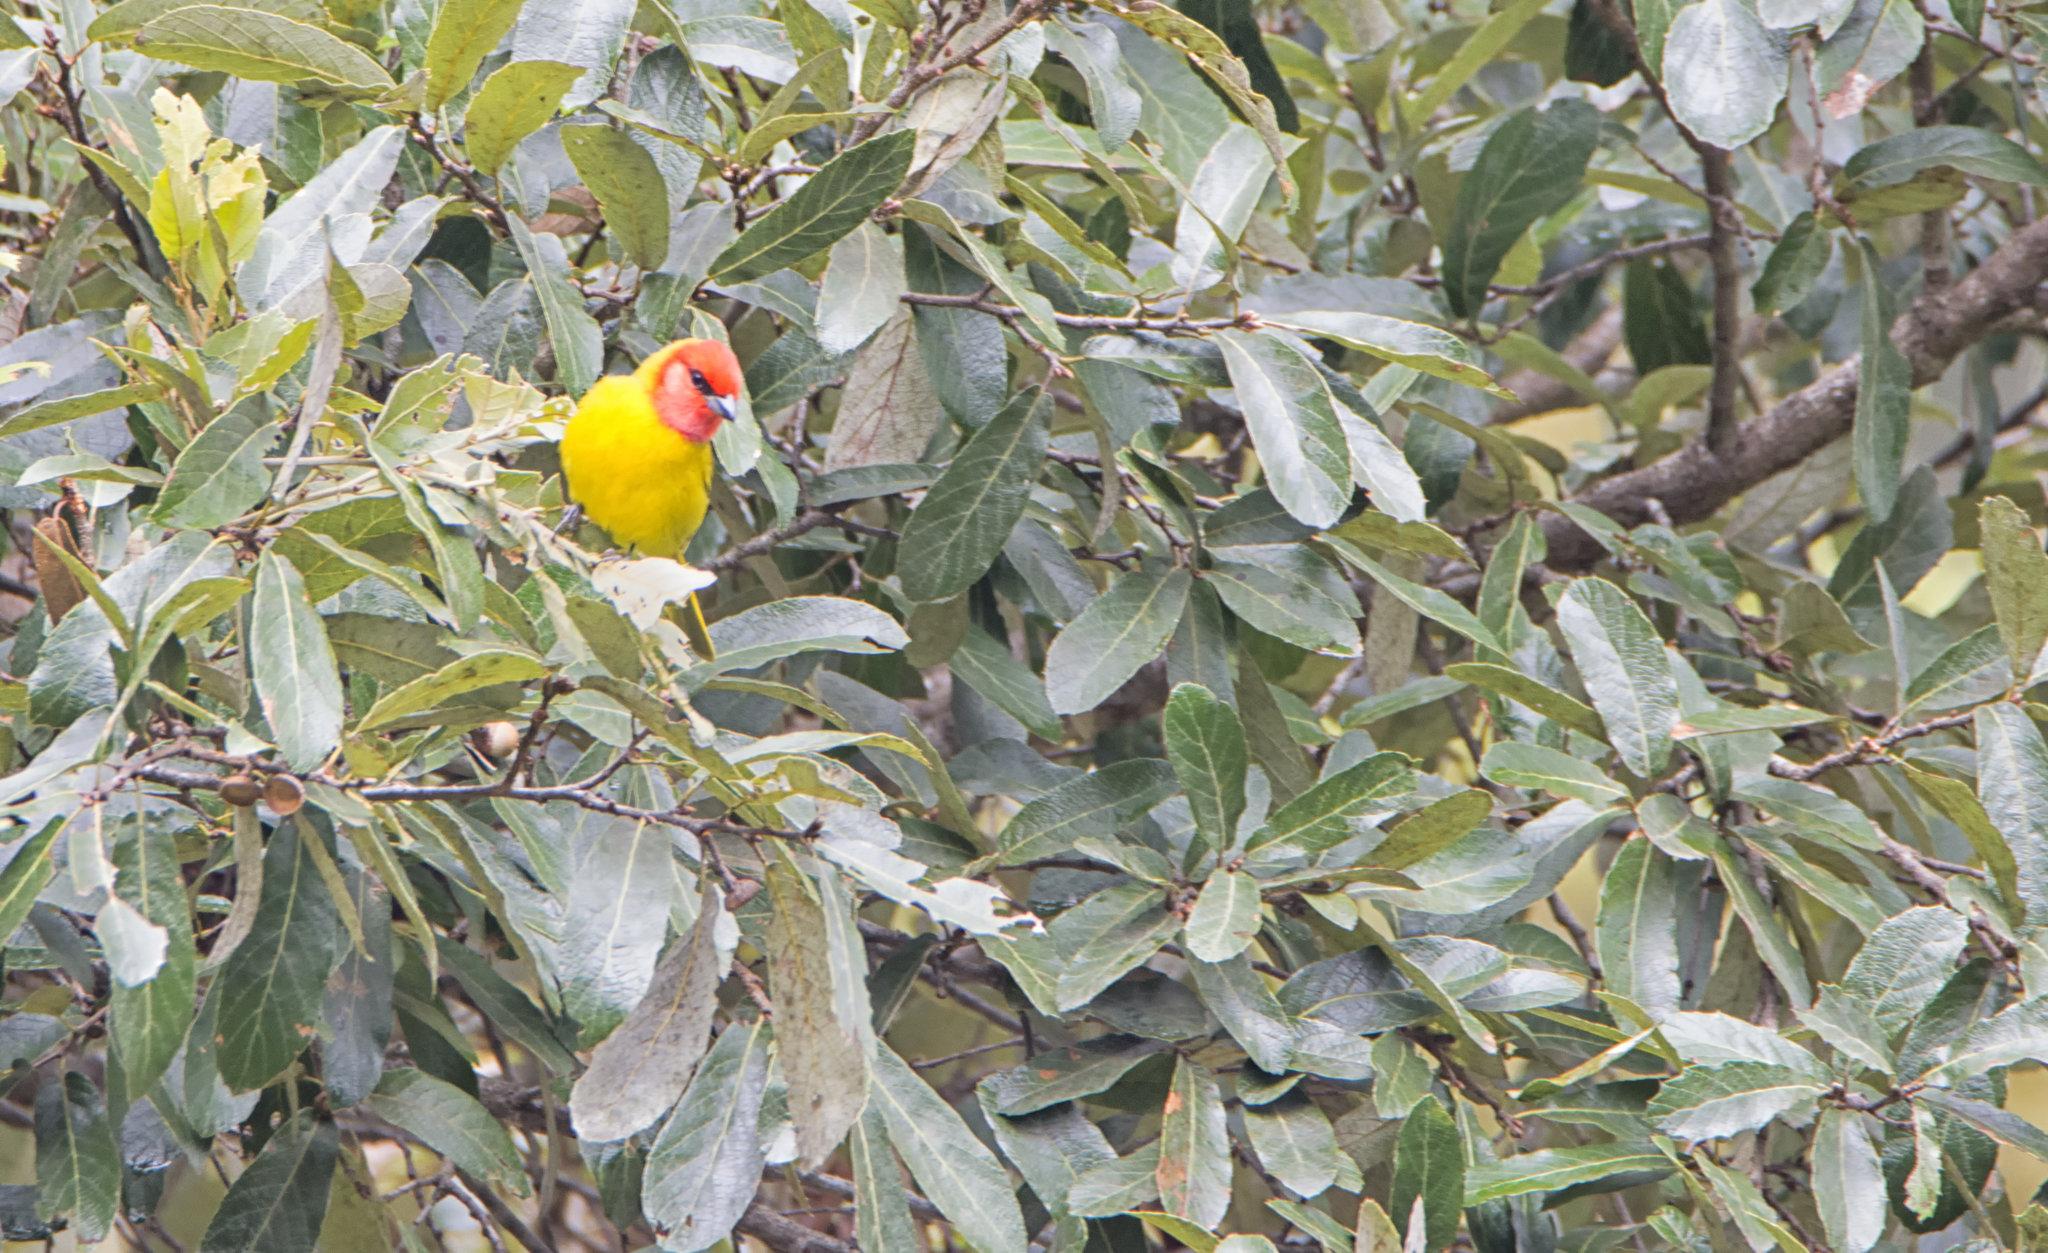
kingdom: Animalia
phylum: Chordata
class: Aves
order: Passeriformes
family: Cardinalidae
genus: Piranga
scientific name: Piranga erythrocephala
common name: Red-headed tanager
